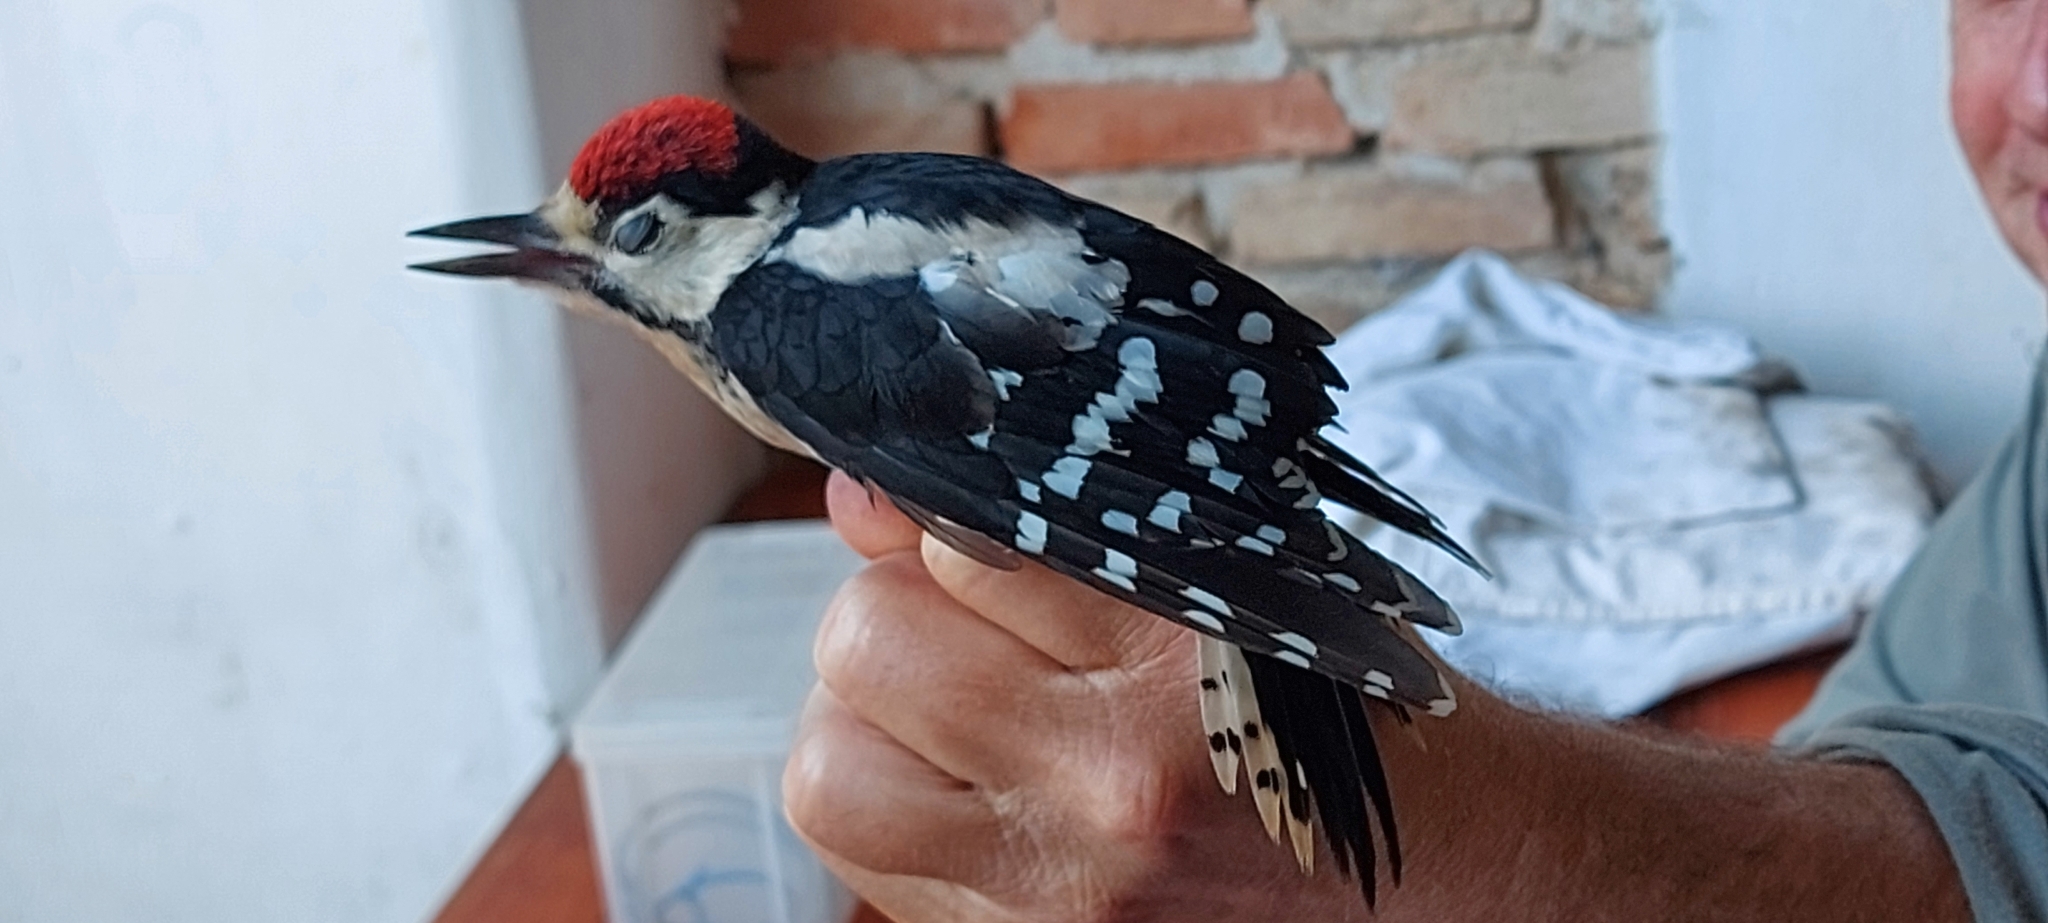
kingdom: Animalia
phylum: Chordata
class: Aves
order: Piciformes
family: Picidae
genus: Dendrocopos
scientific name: Dendrocopos major
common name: Great spotted woodpecker
